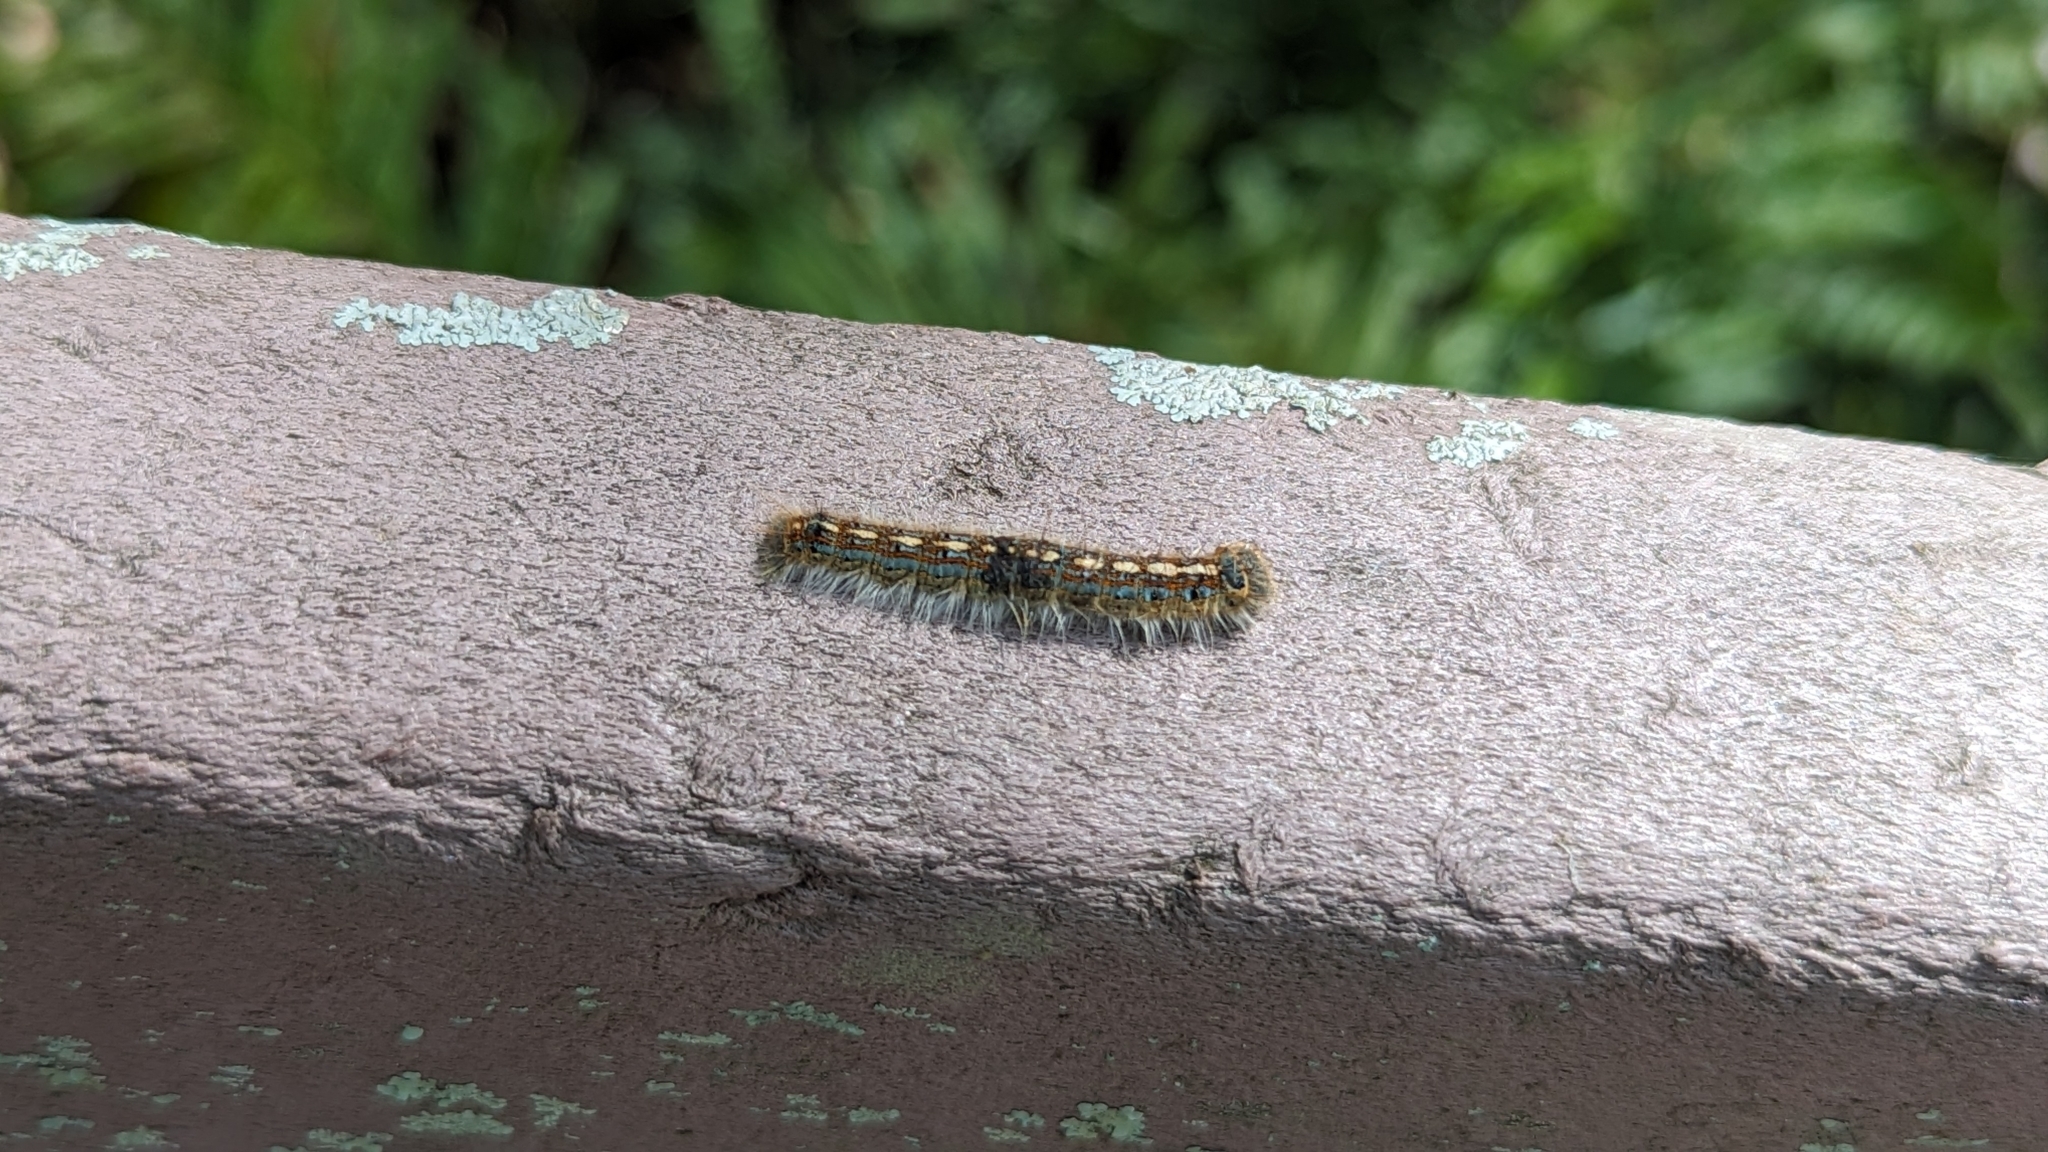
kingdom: Animalia
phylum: Arthropoda
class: Insecta
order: Lepidoptera
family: Lasiocampidae
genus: Malacosoma
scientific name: Malacosoma disstria
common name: Forest tent caterpillar
